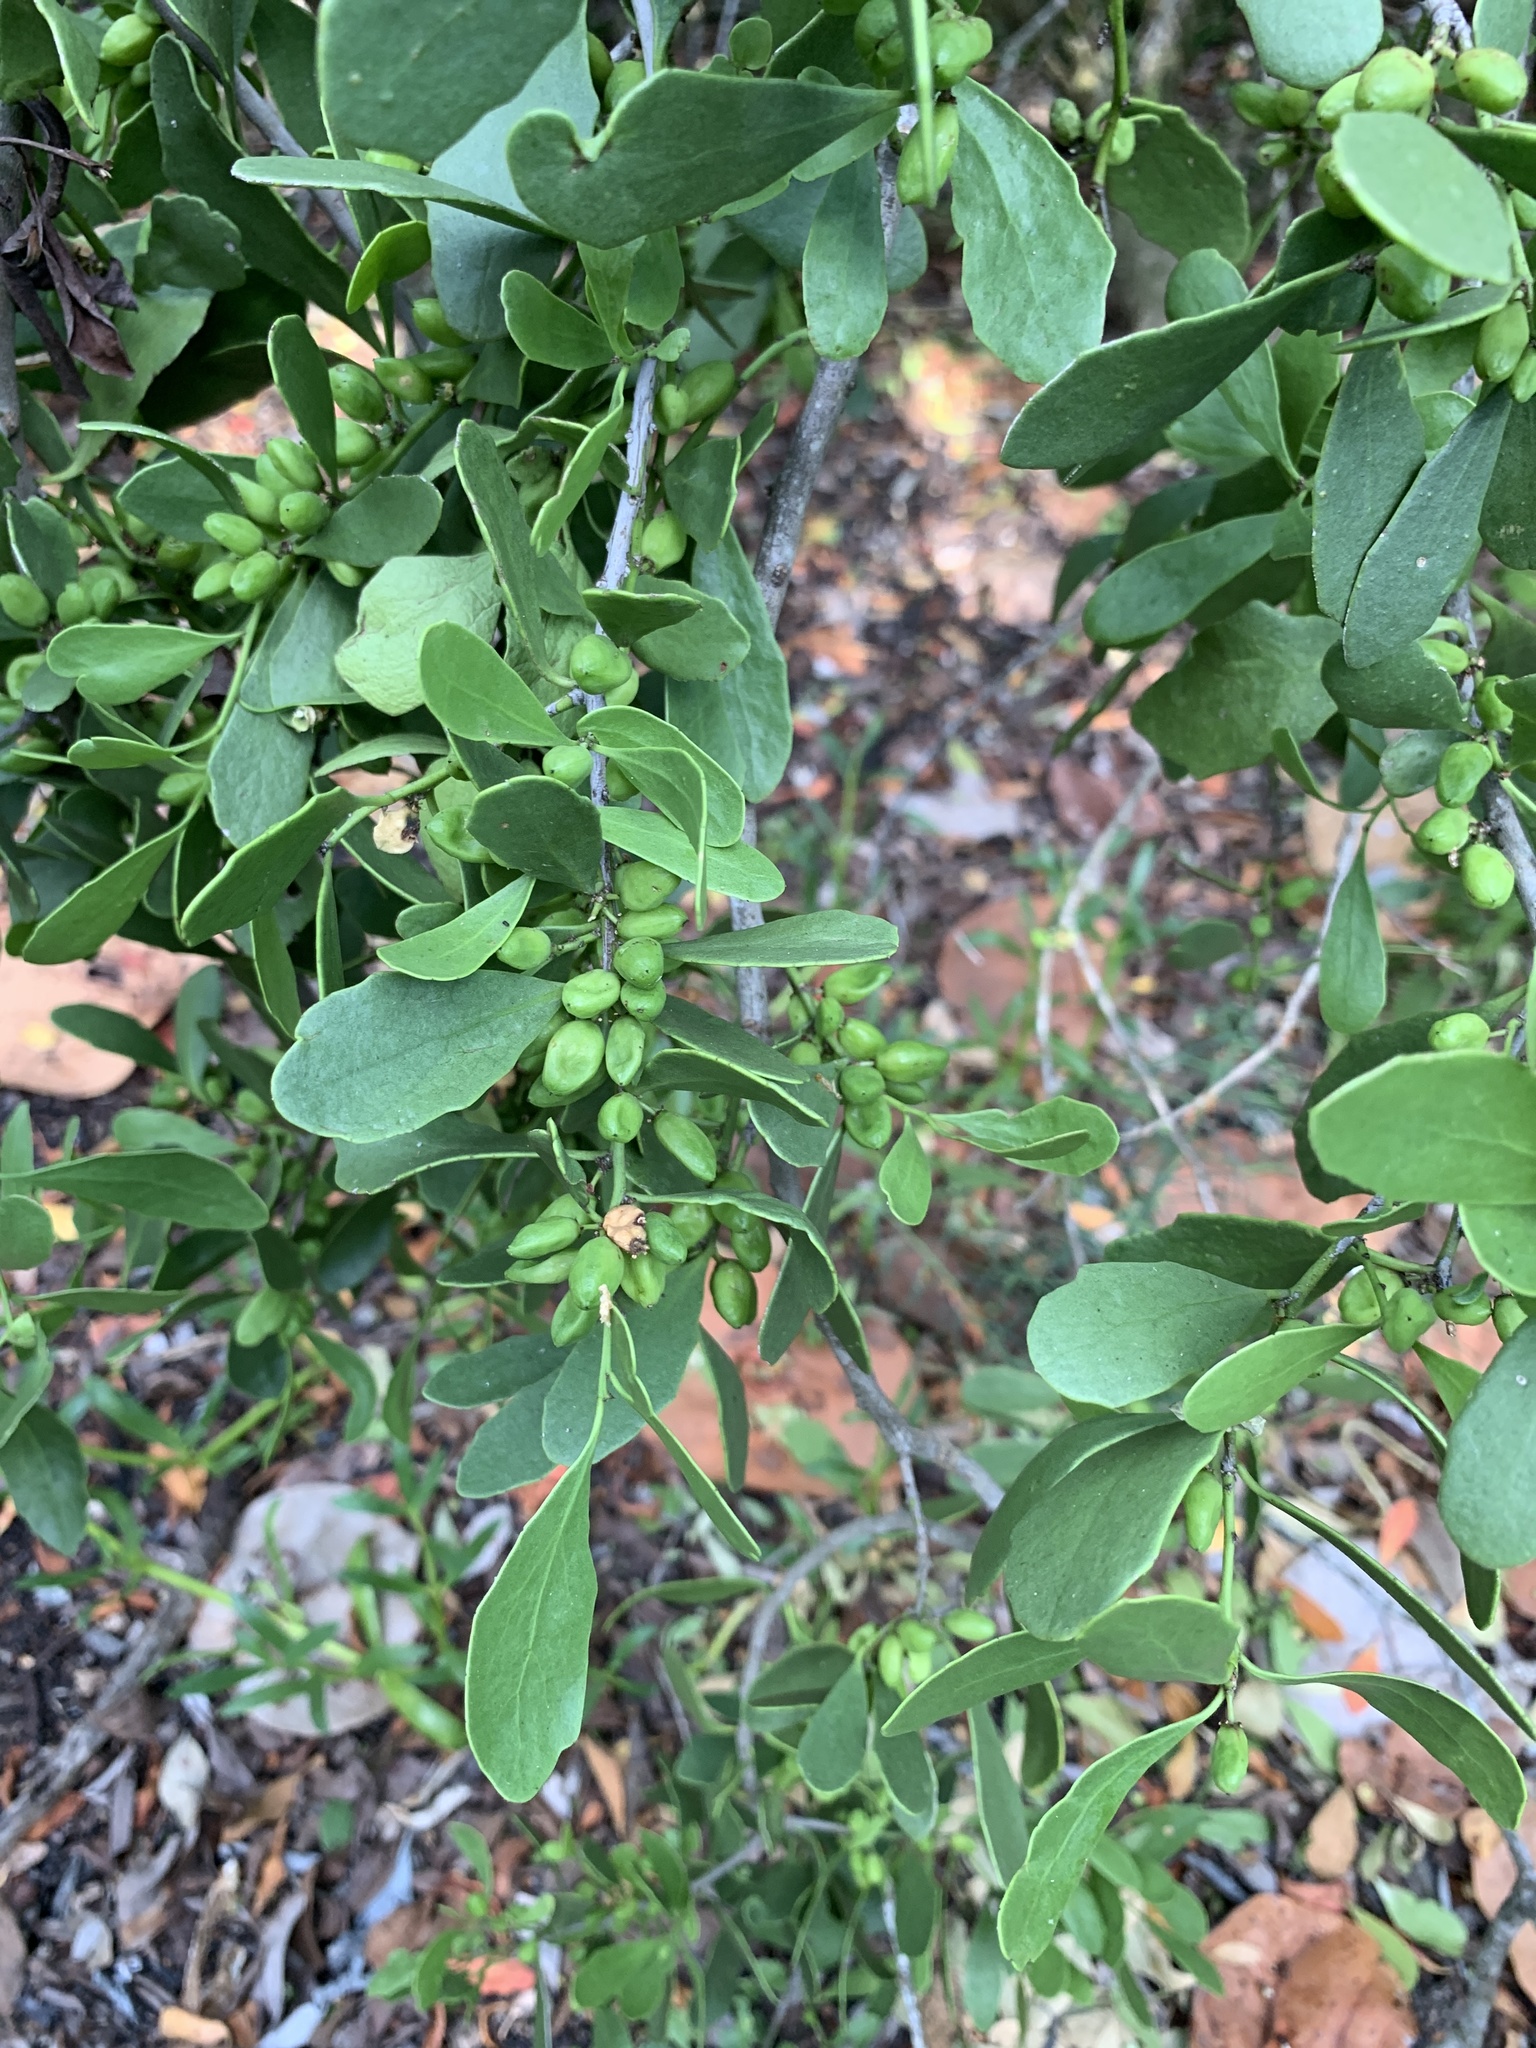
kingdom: Plantae
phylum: Tracheophyta
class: Magnoliopsida
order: Celastrales
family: Celastraceae
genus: Tricerma
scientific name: Tricerma phyllanthoides
